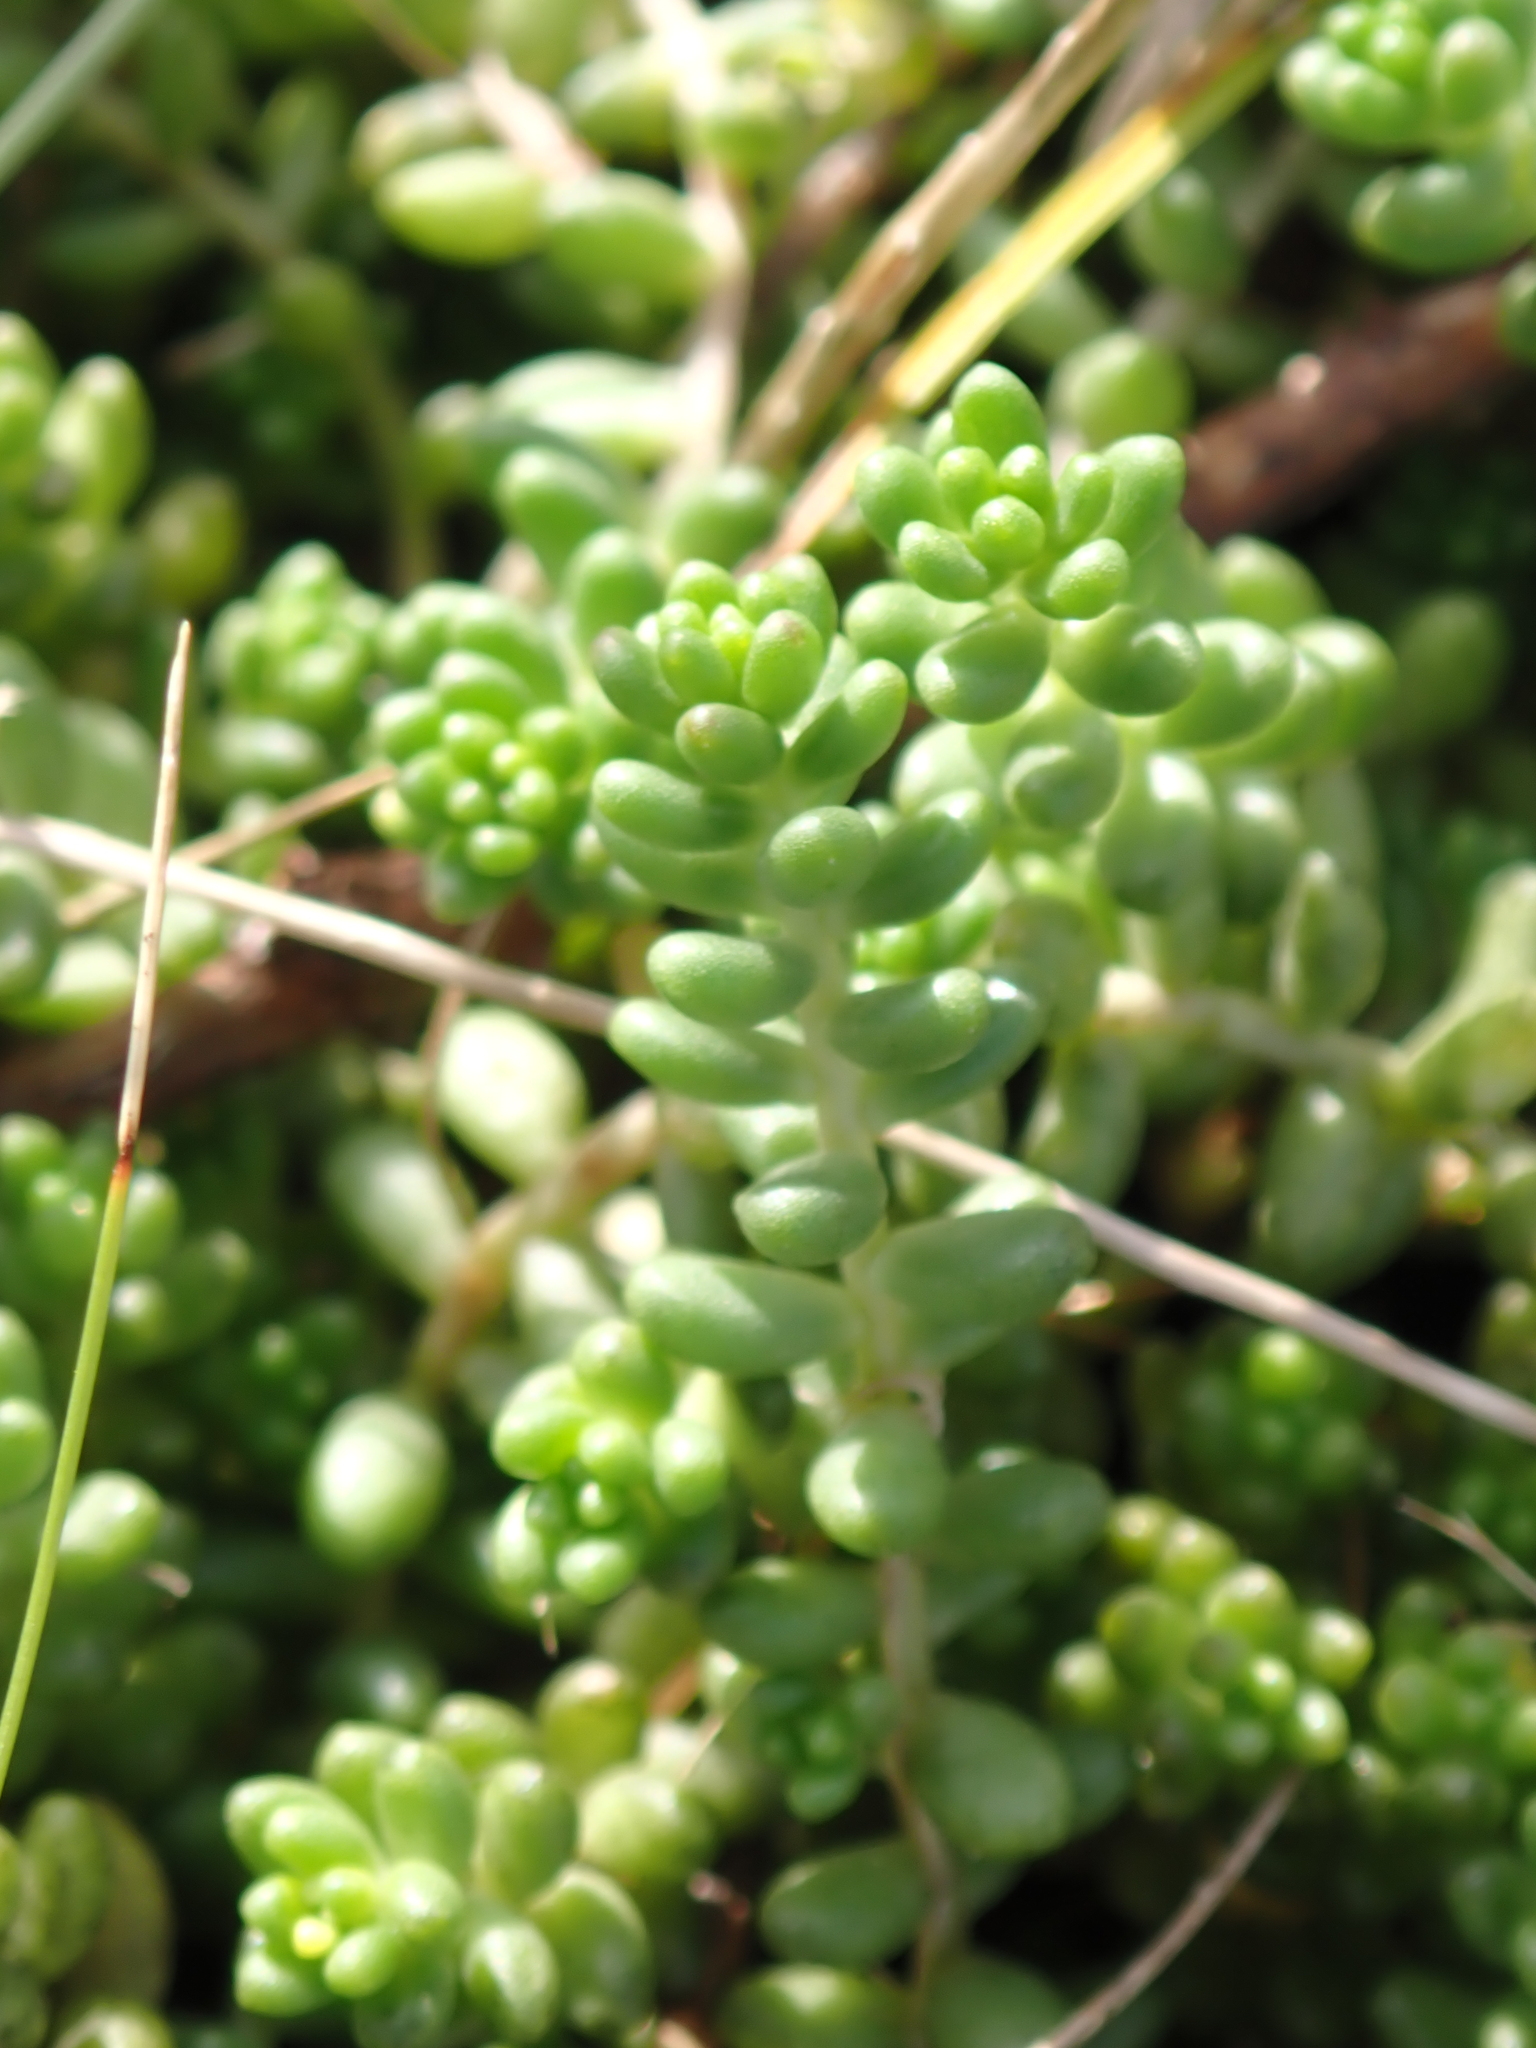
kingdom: Plantae
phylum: Tracheophyta
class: Magnoliopsida
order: Saxifragales
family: Crassulaceae
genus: Sedum
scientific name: Sedum album
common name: White stonecrop
